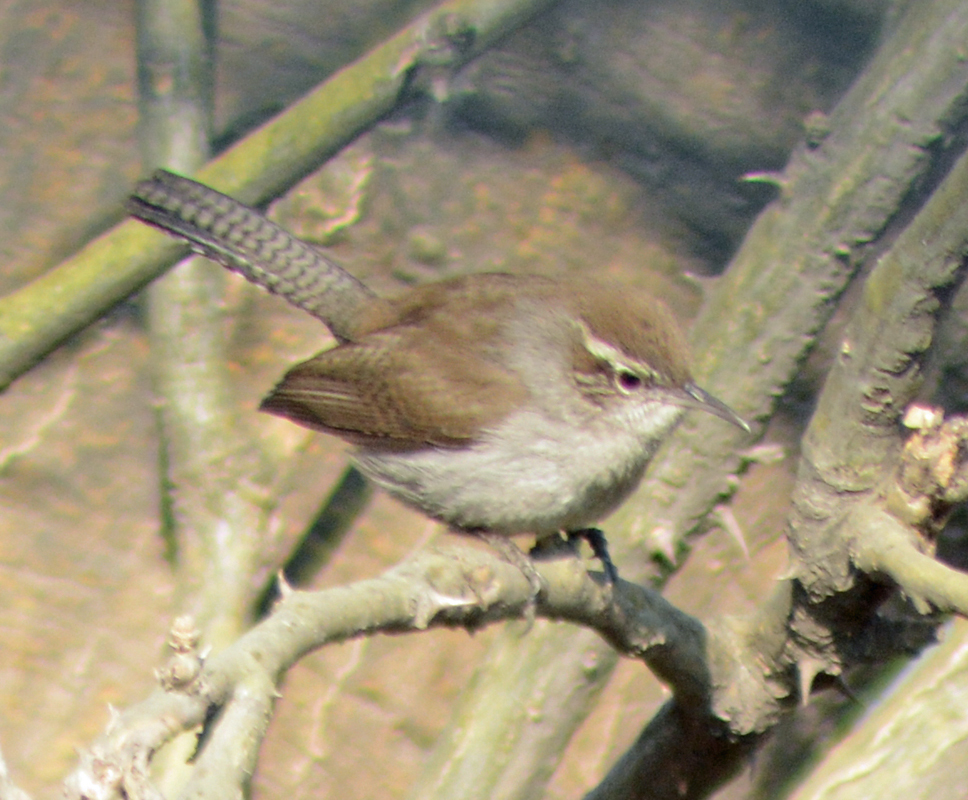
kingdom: Animalia
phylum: Chordata
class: Aves
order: Passeriformes
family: Troglodytidae
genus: Thryomanes
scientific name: Thryomanes bewickii
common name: Bewick's wren
